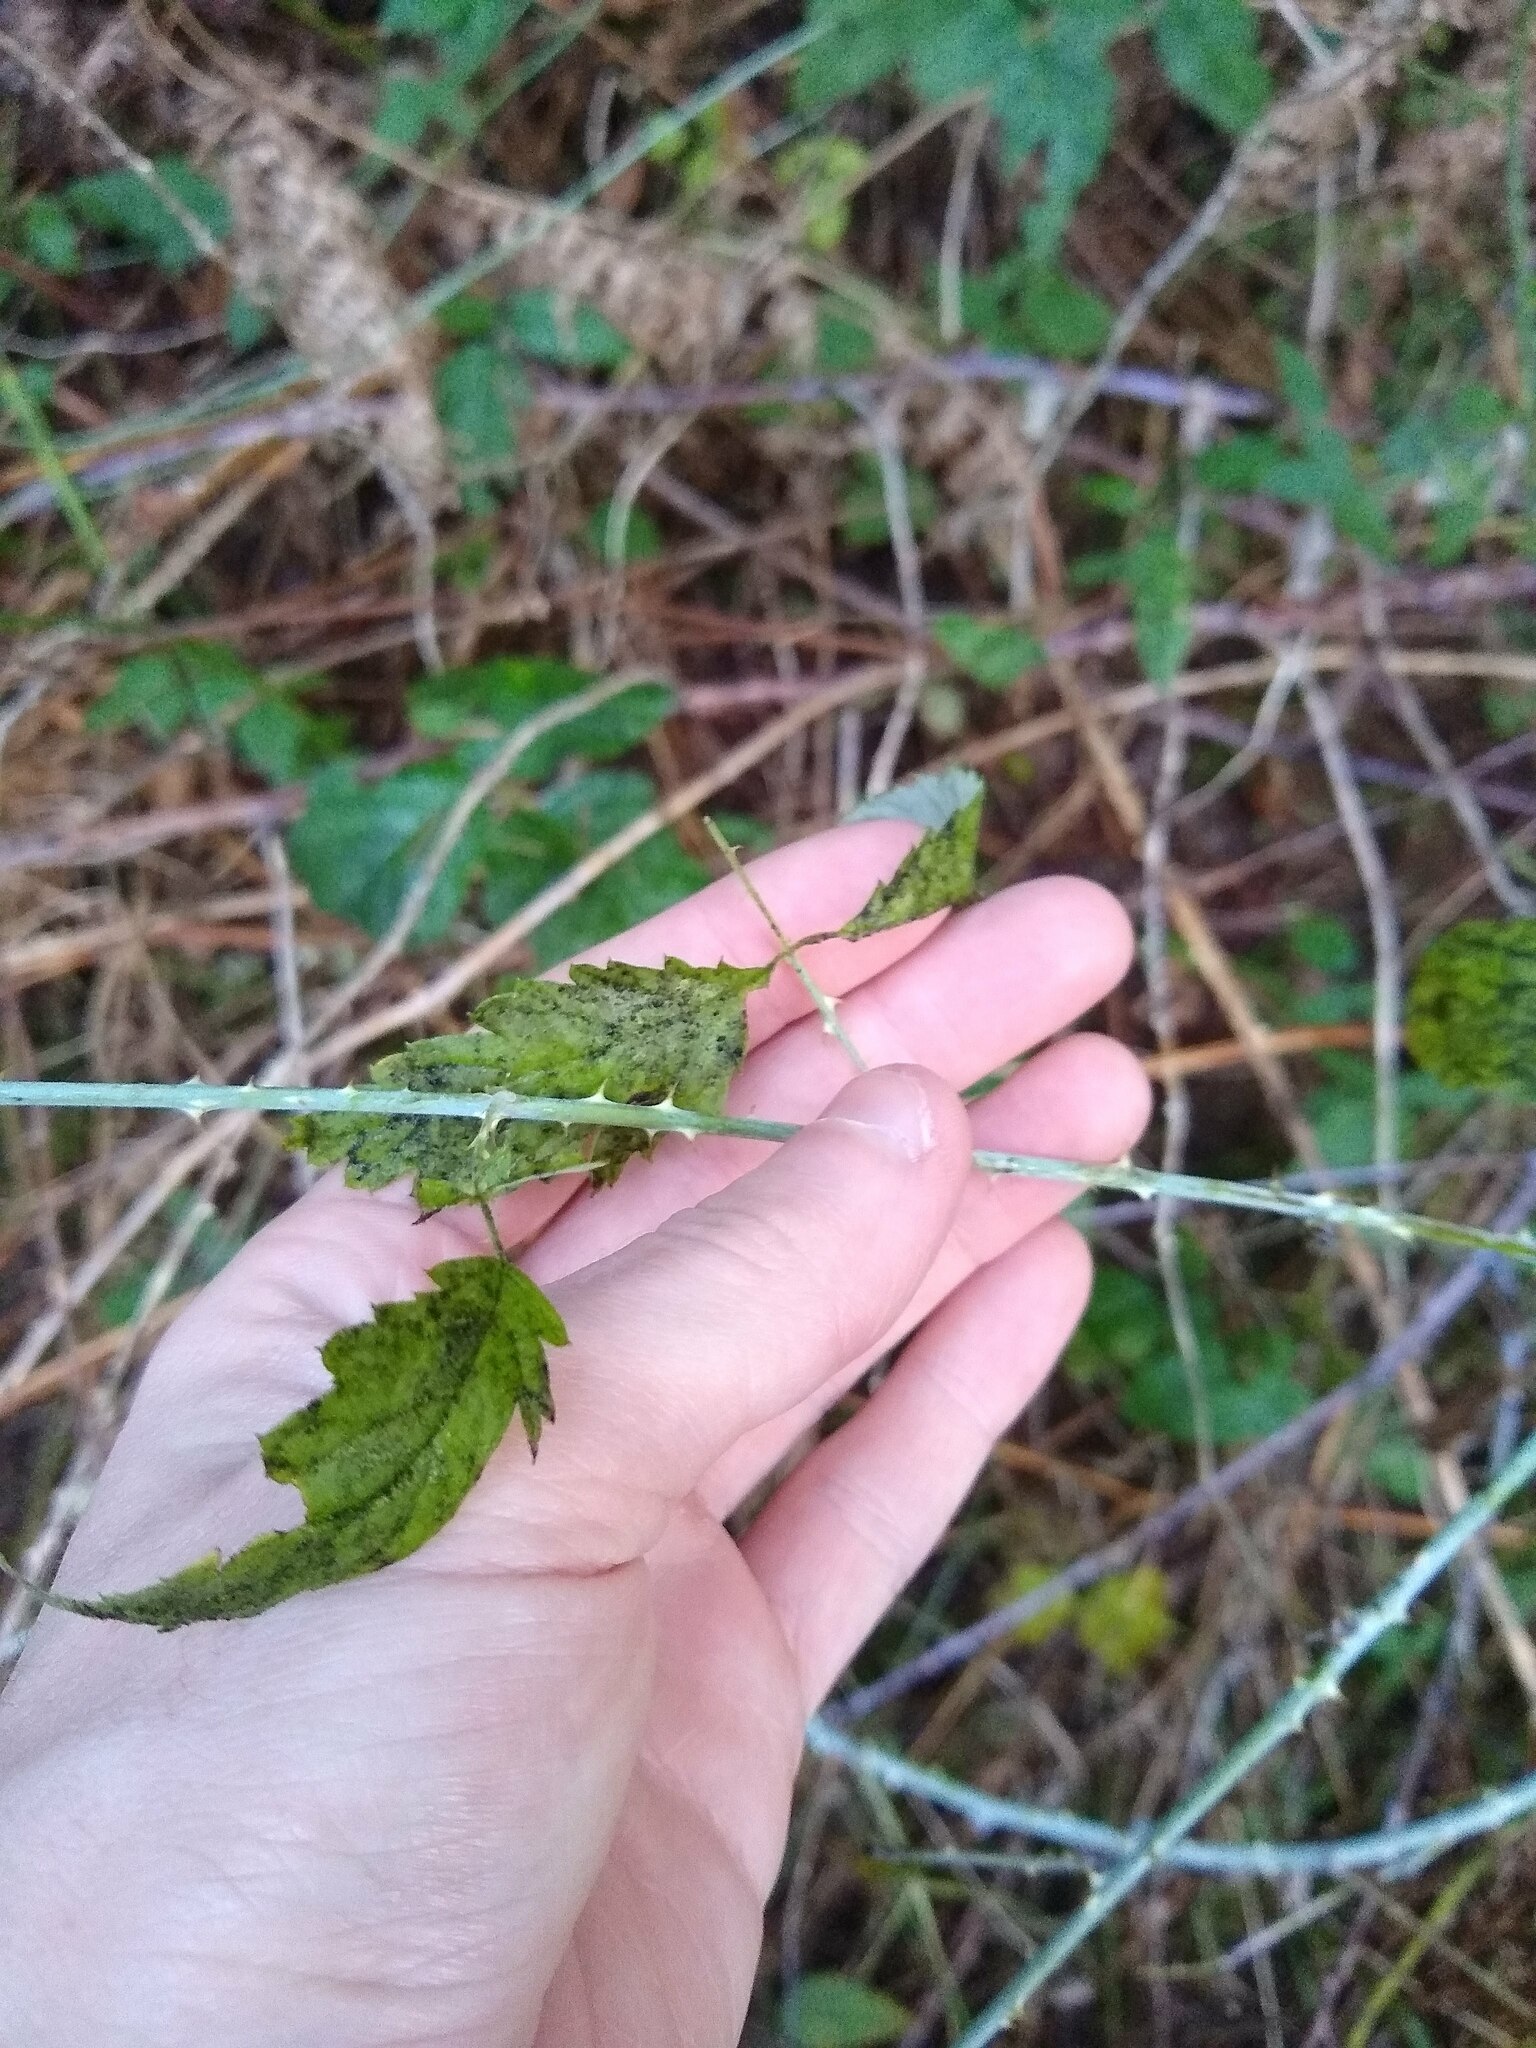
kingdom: Plantae
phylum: Tracheophyta
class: Magnoliopsida
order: Rosales
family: Rosaceae
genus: Rubus
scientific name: Rubus leucodermis
